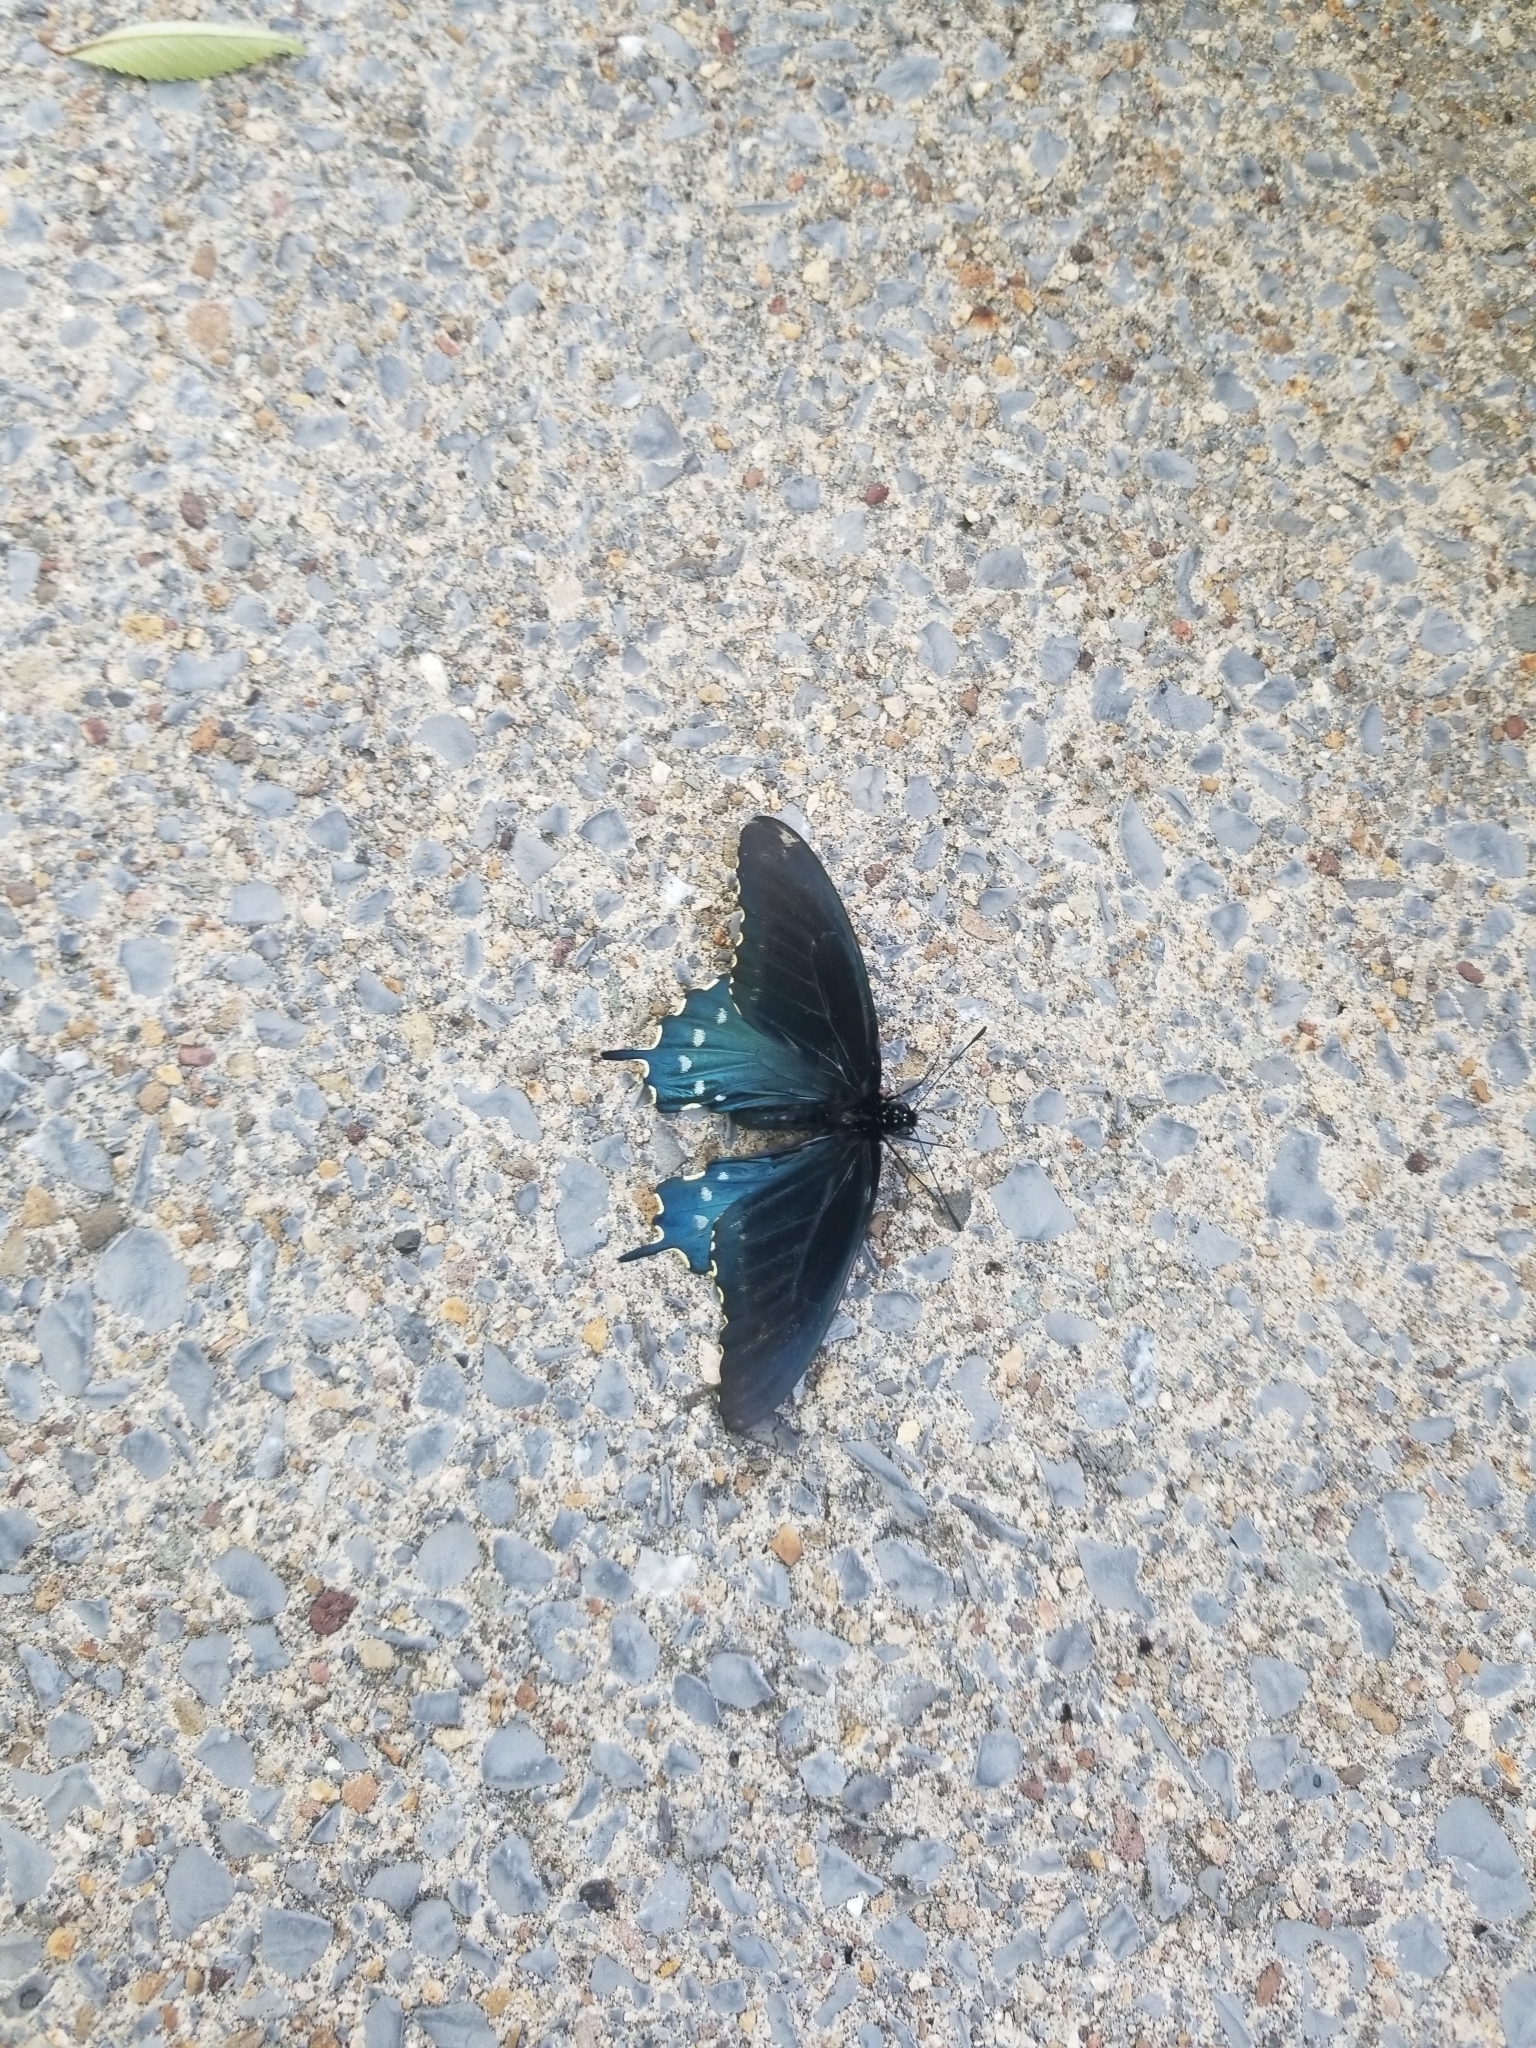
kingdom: Animalia
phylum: Arthropoda
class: Insecta
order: Lepidoptera
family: Papilionidae
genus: Battus
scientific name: Battus philenor
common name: Pipevine swallowtail
